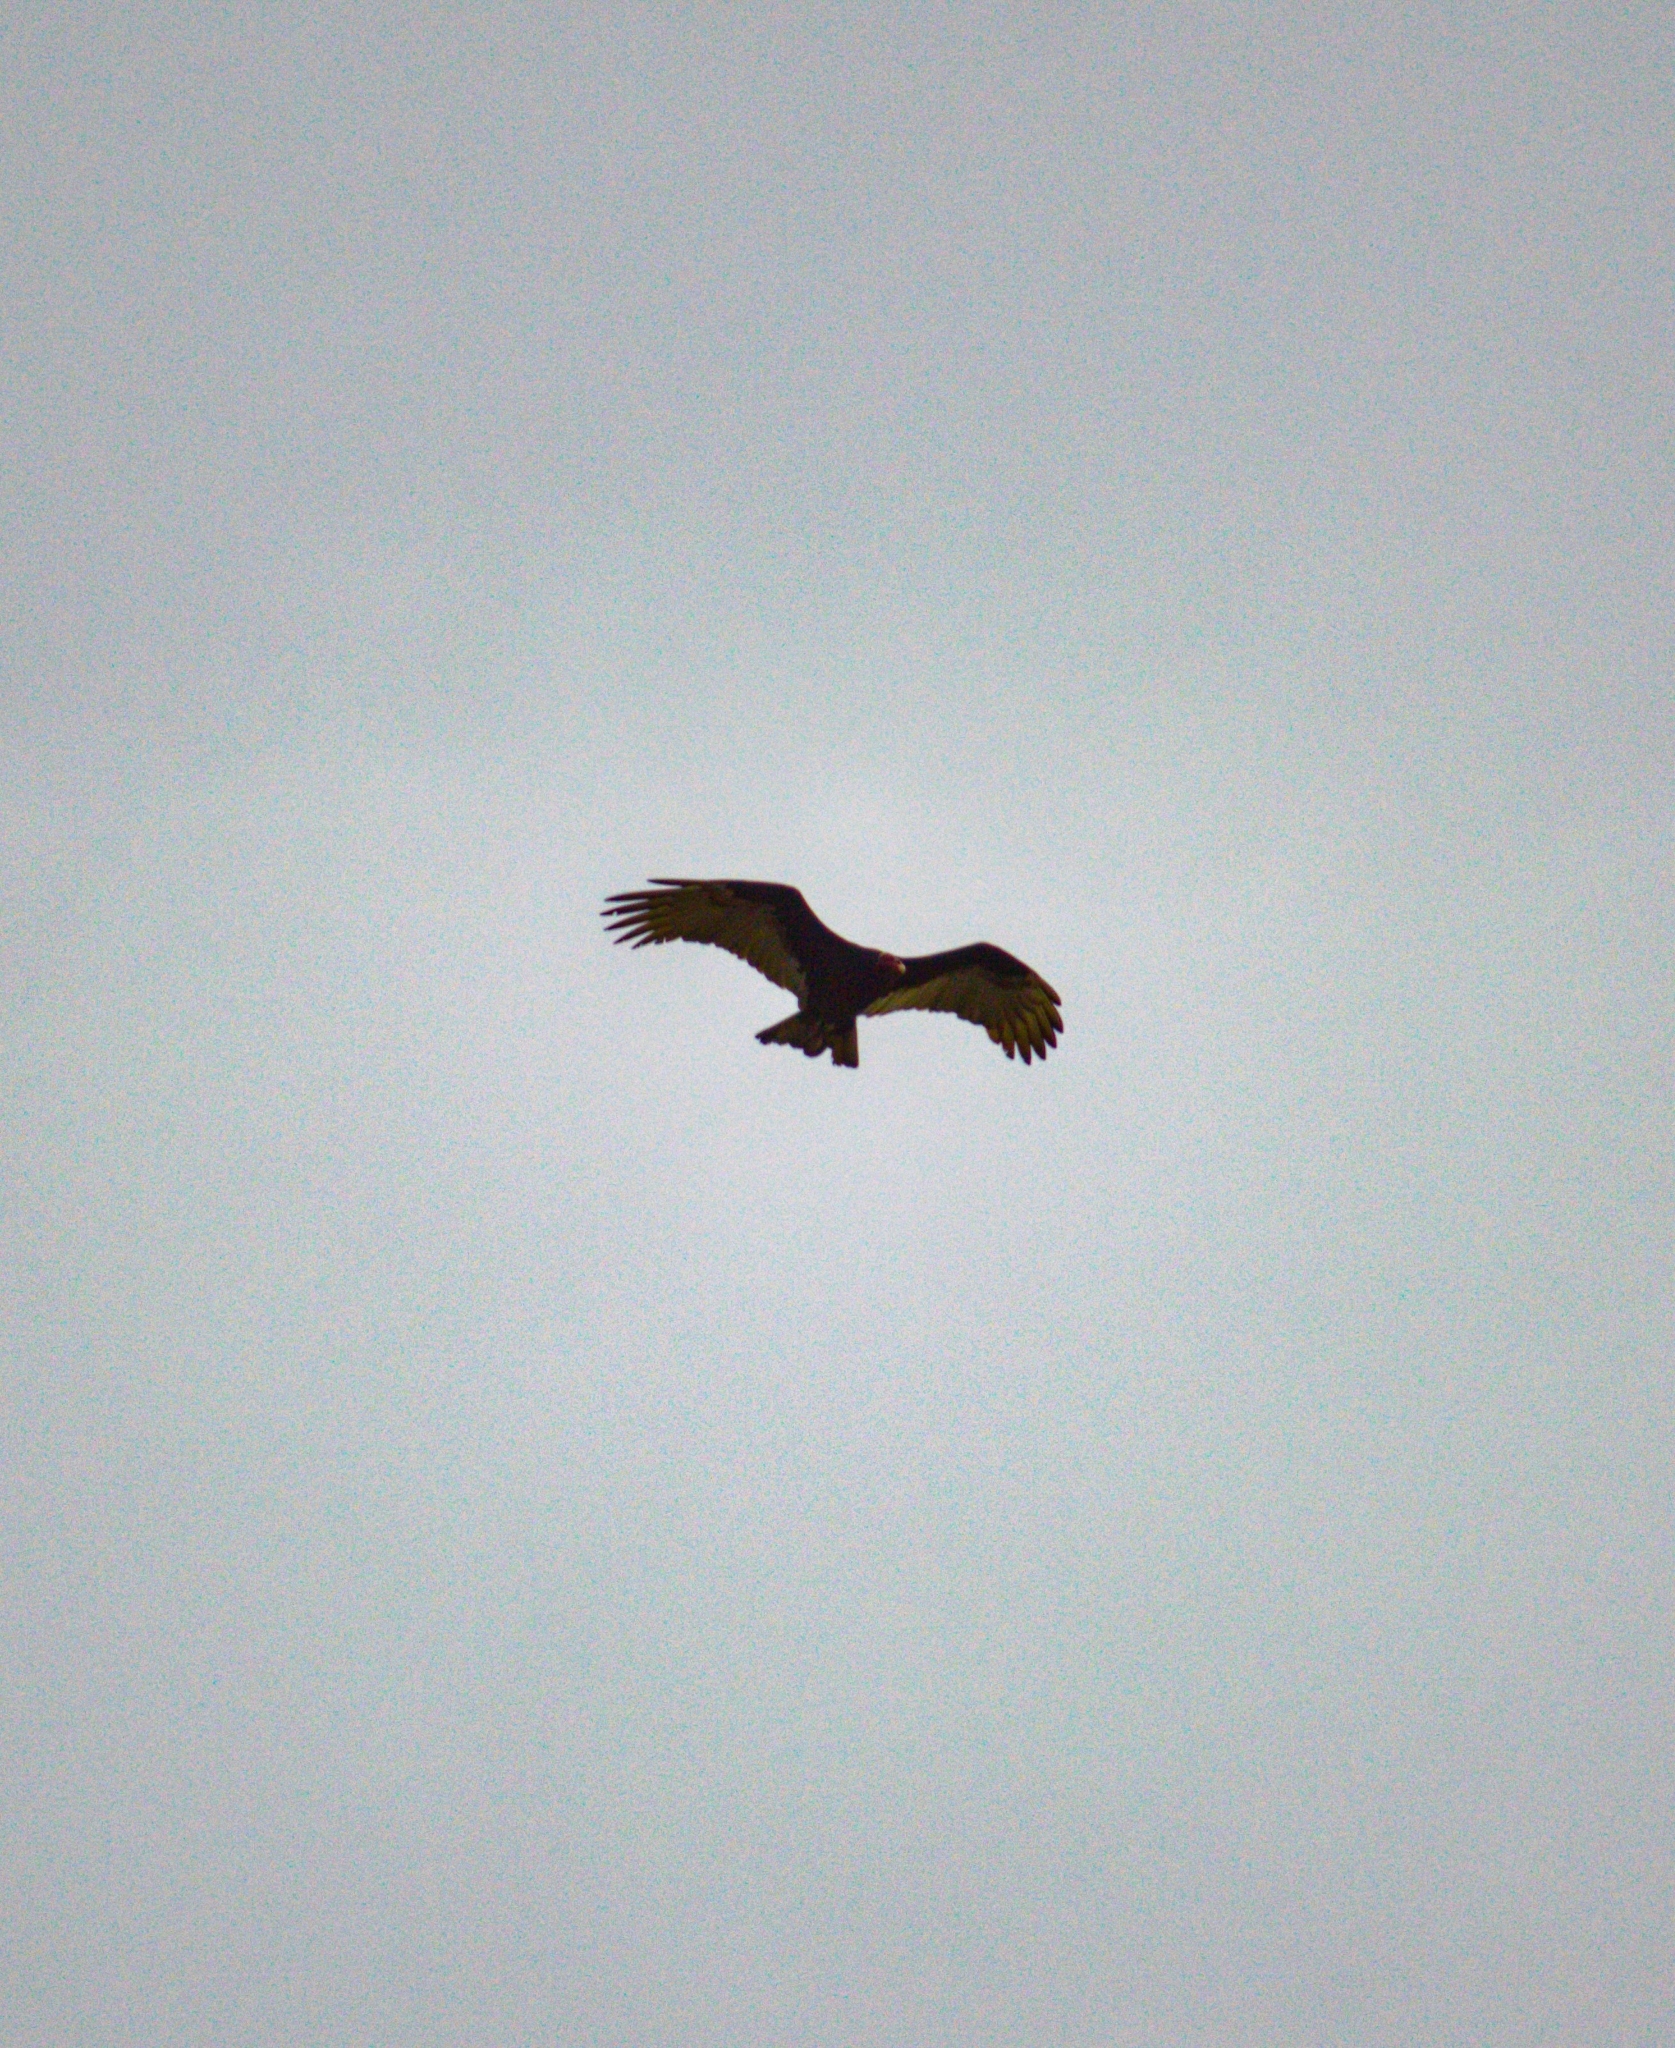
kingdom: Animalia
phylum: Chordata
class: Aves
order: Accipitriformes
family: Cathartidae
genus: Cathartes
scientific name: Cathartes aura
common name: Turkey vulture
